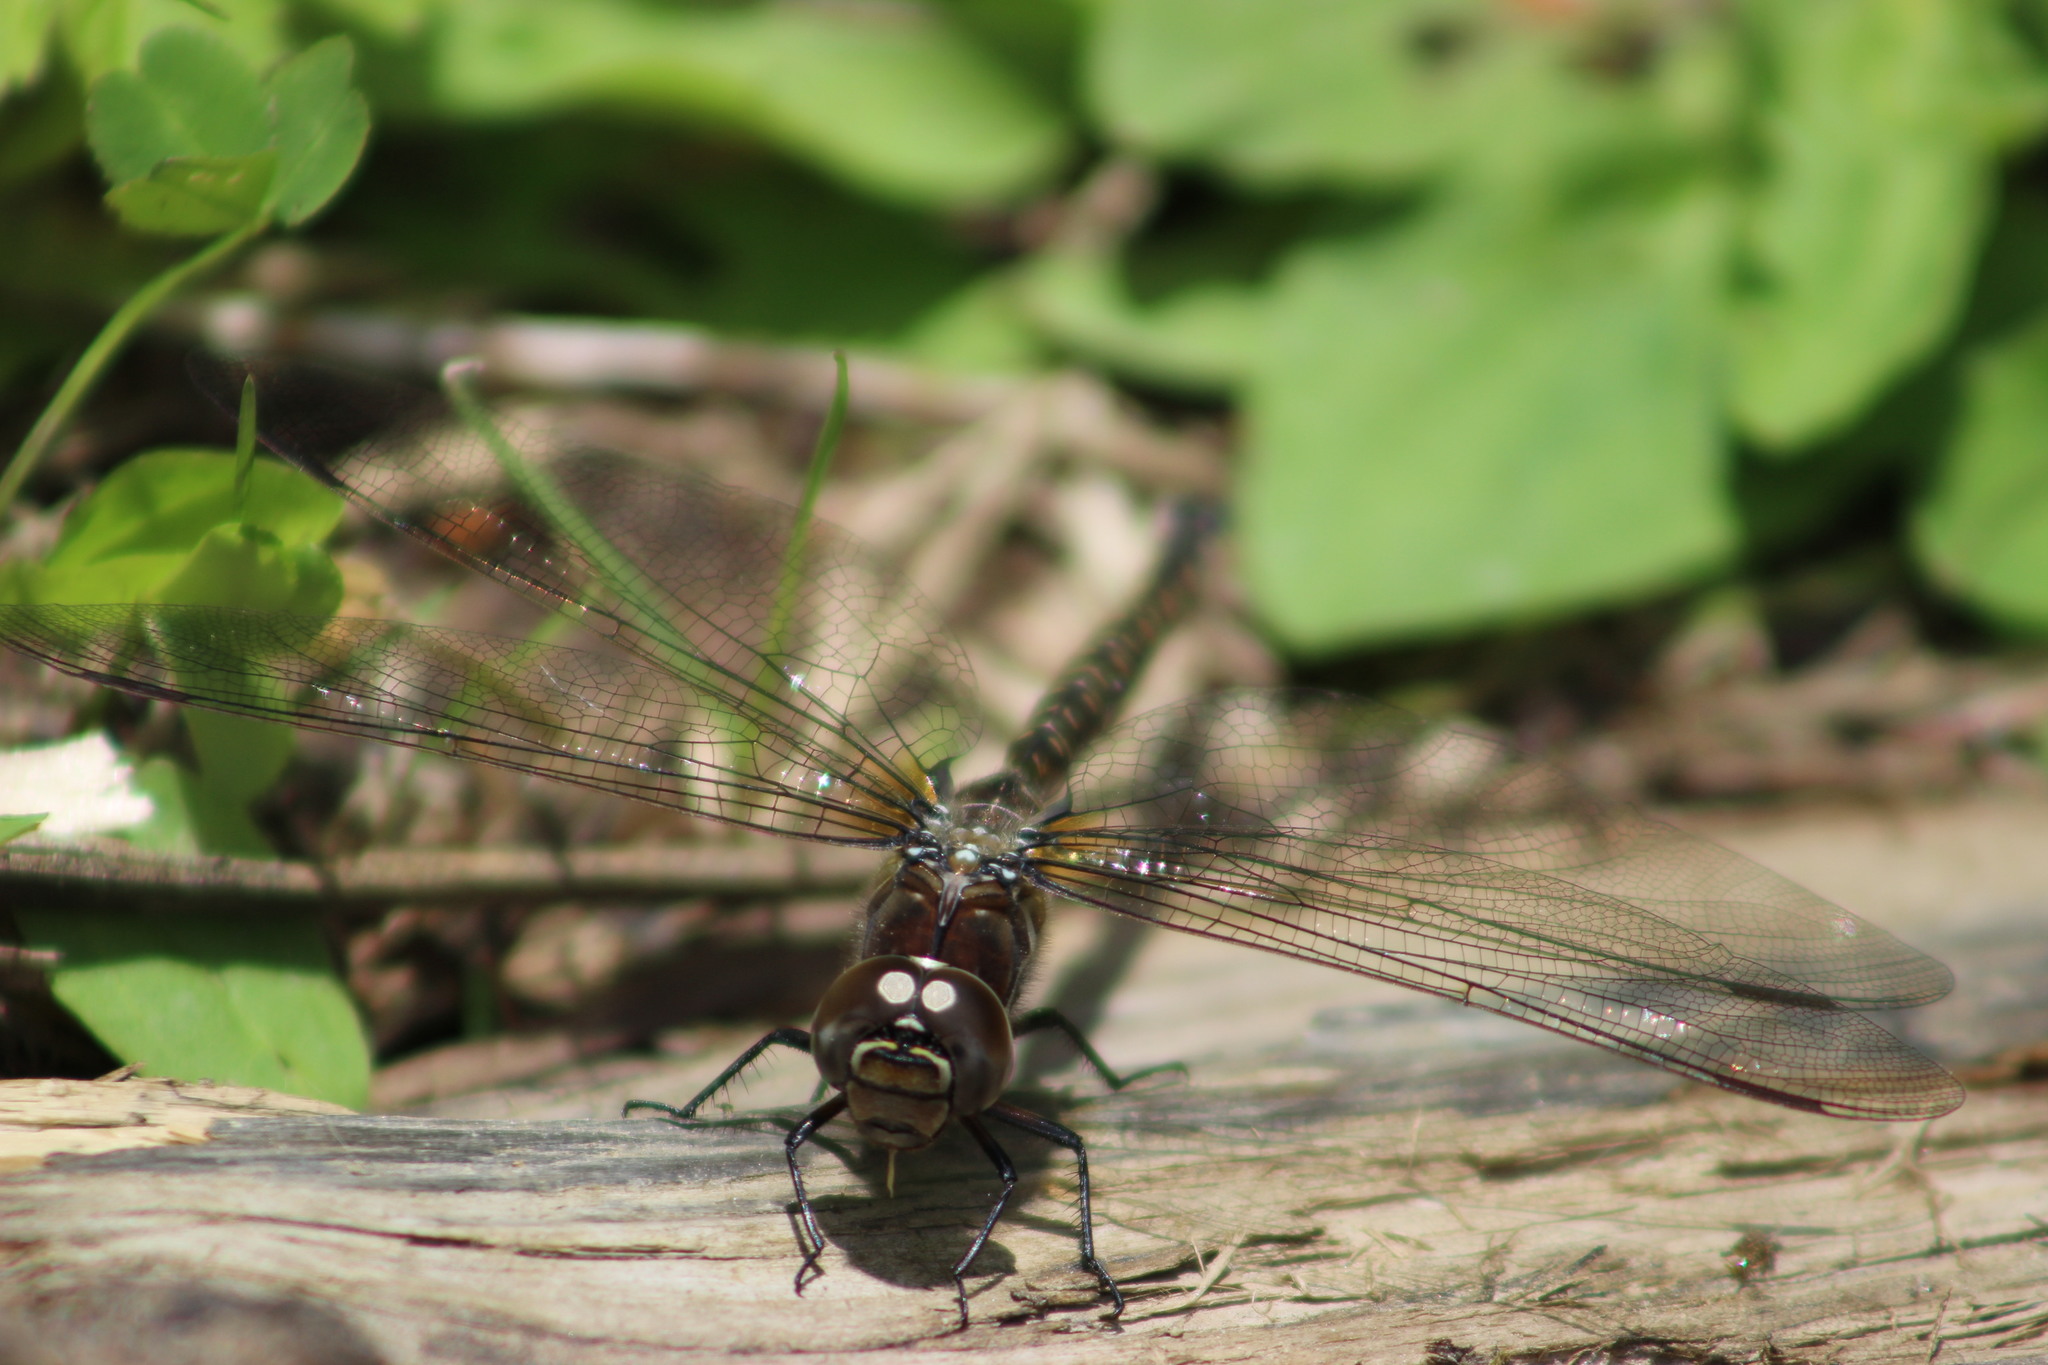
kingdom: Animalia
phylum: Arthropoda
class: Insecta
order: Odonata
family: Aeshnidae
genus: Aeshna
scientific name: Aeshna subarctica
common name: Subarctic darner
